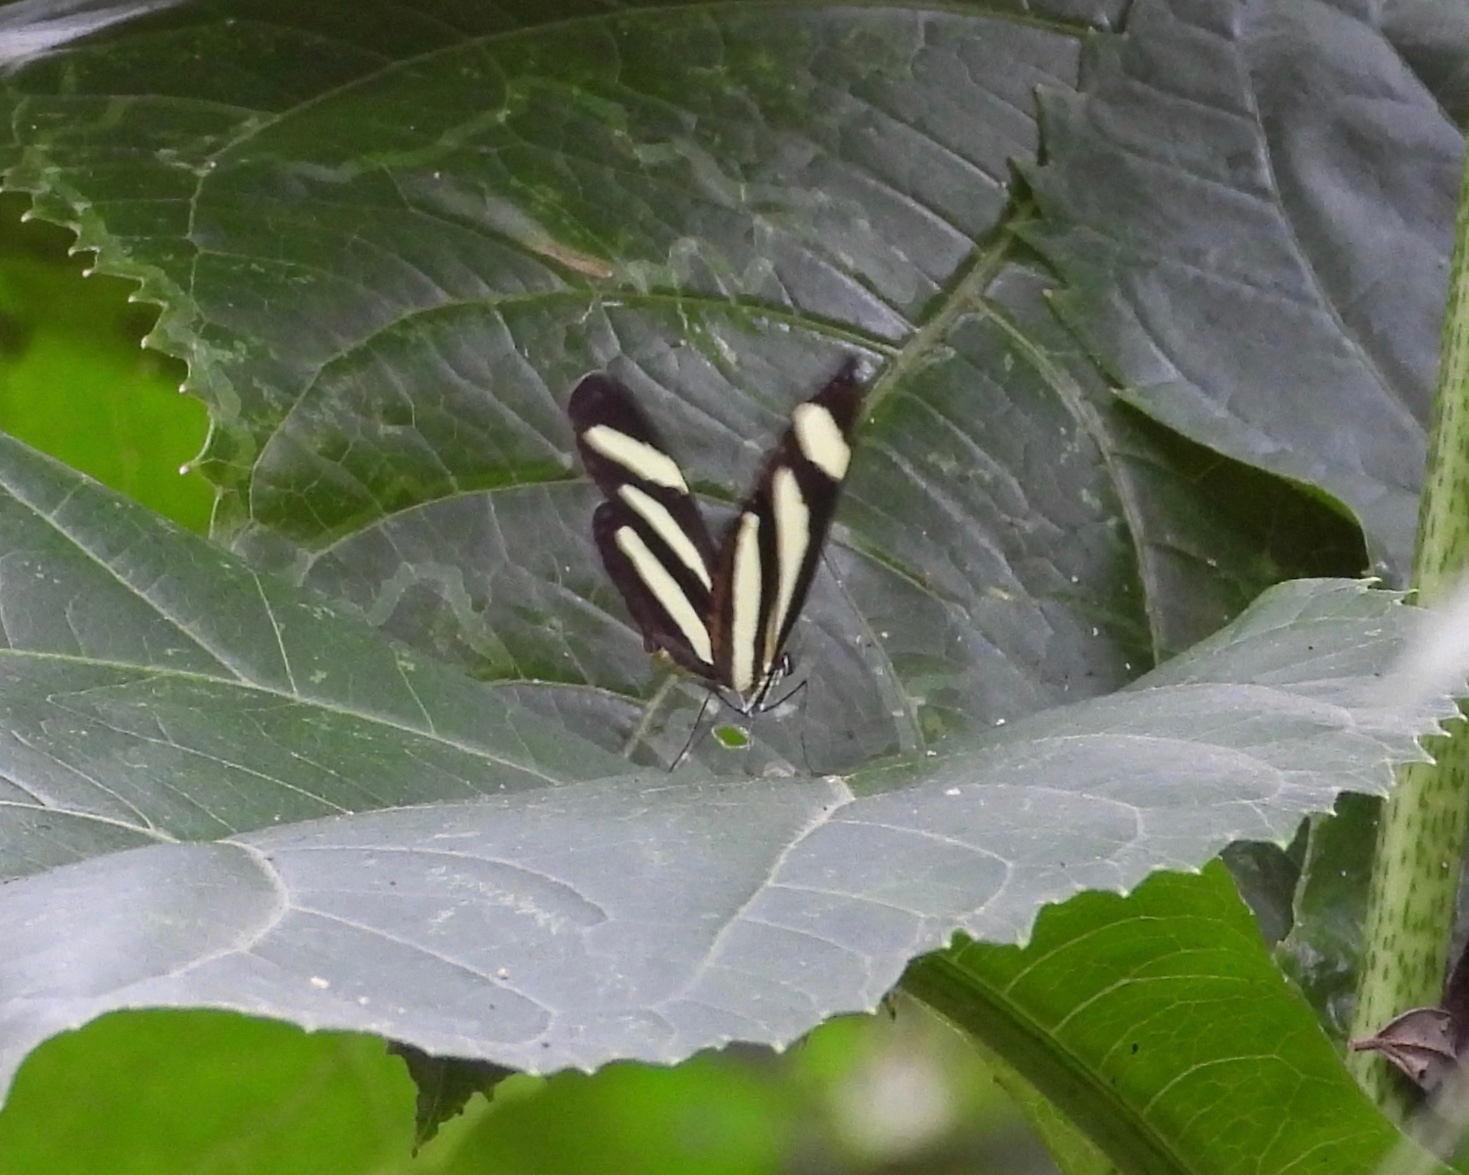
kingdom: Animalia
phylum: Arthropoda
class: Insecta
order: Lepidoptera
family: Nymphalidae
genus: Aeria
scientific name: Aeria eurimedia
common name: Banded tigerwing
